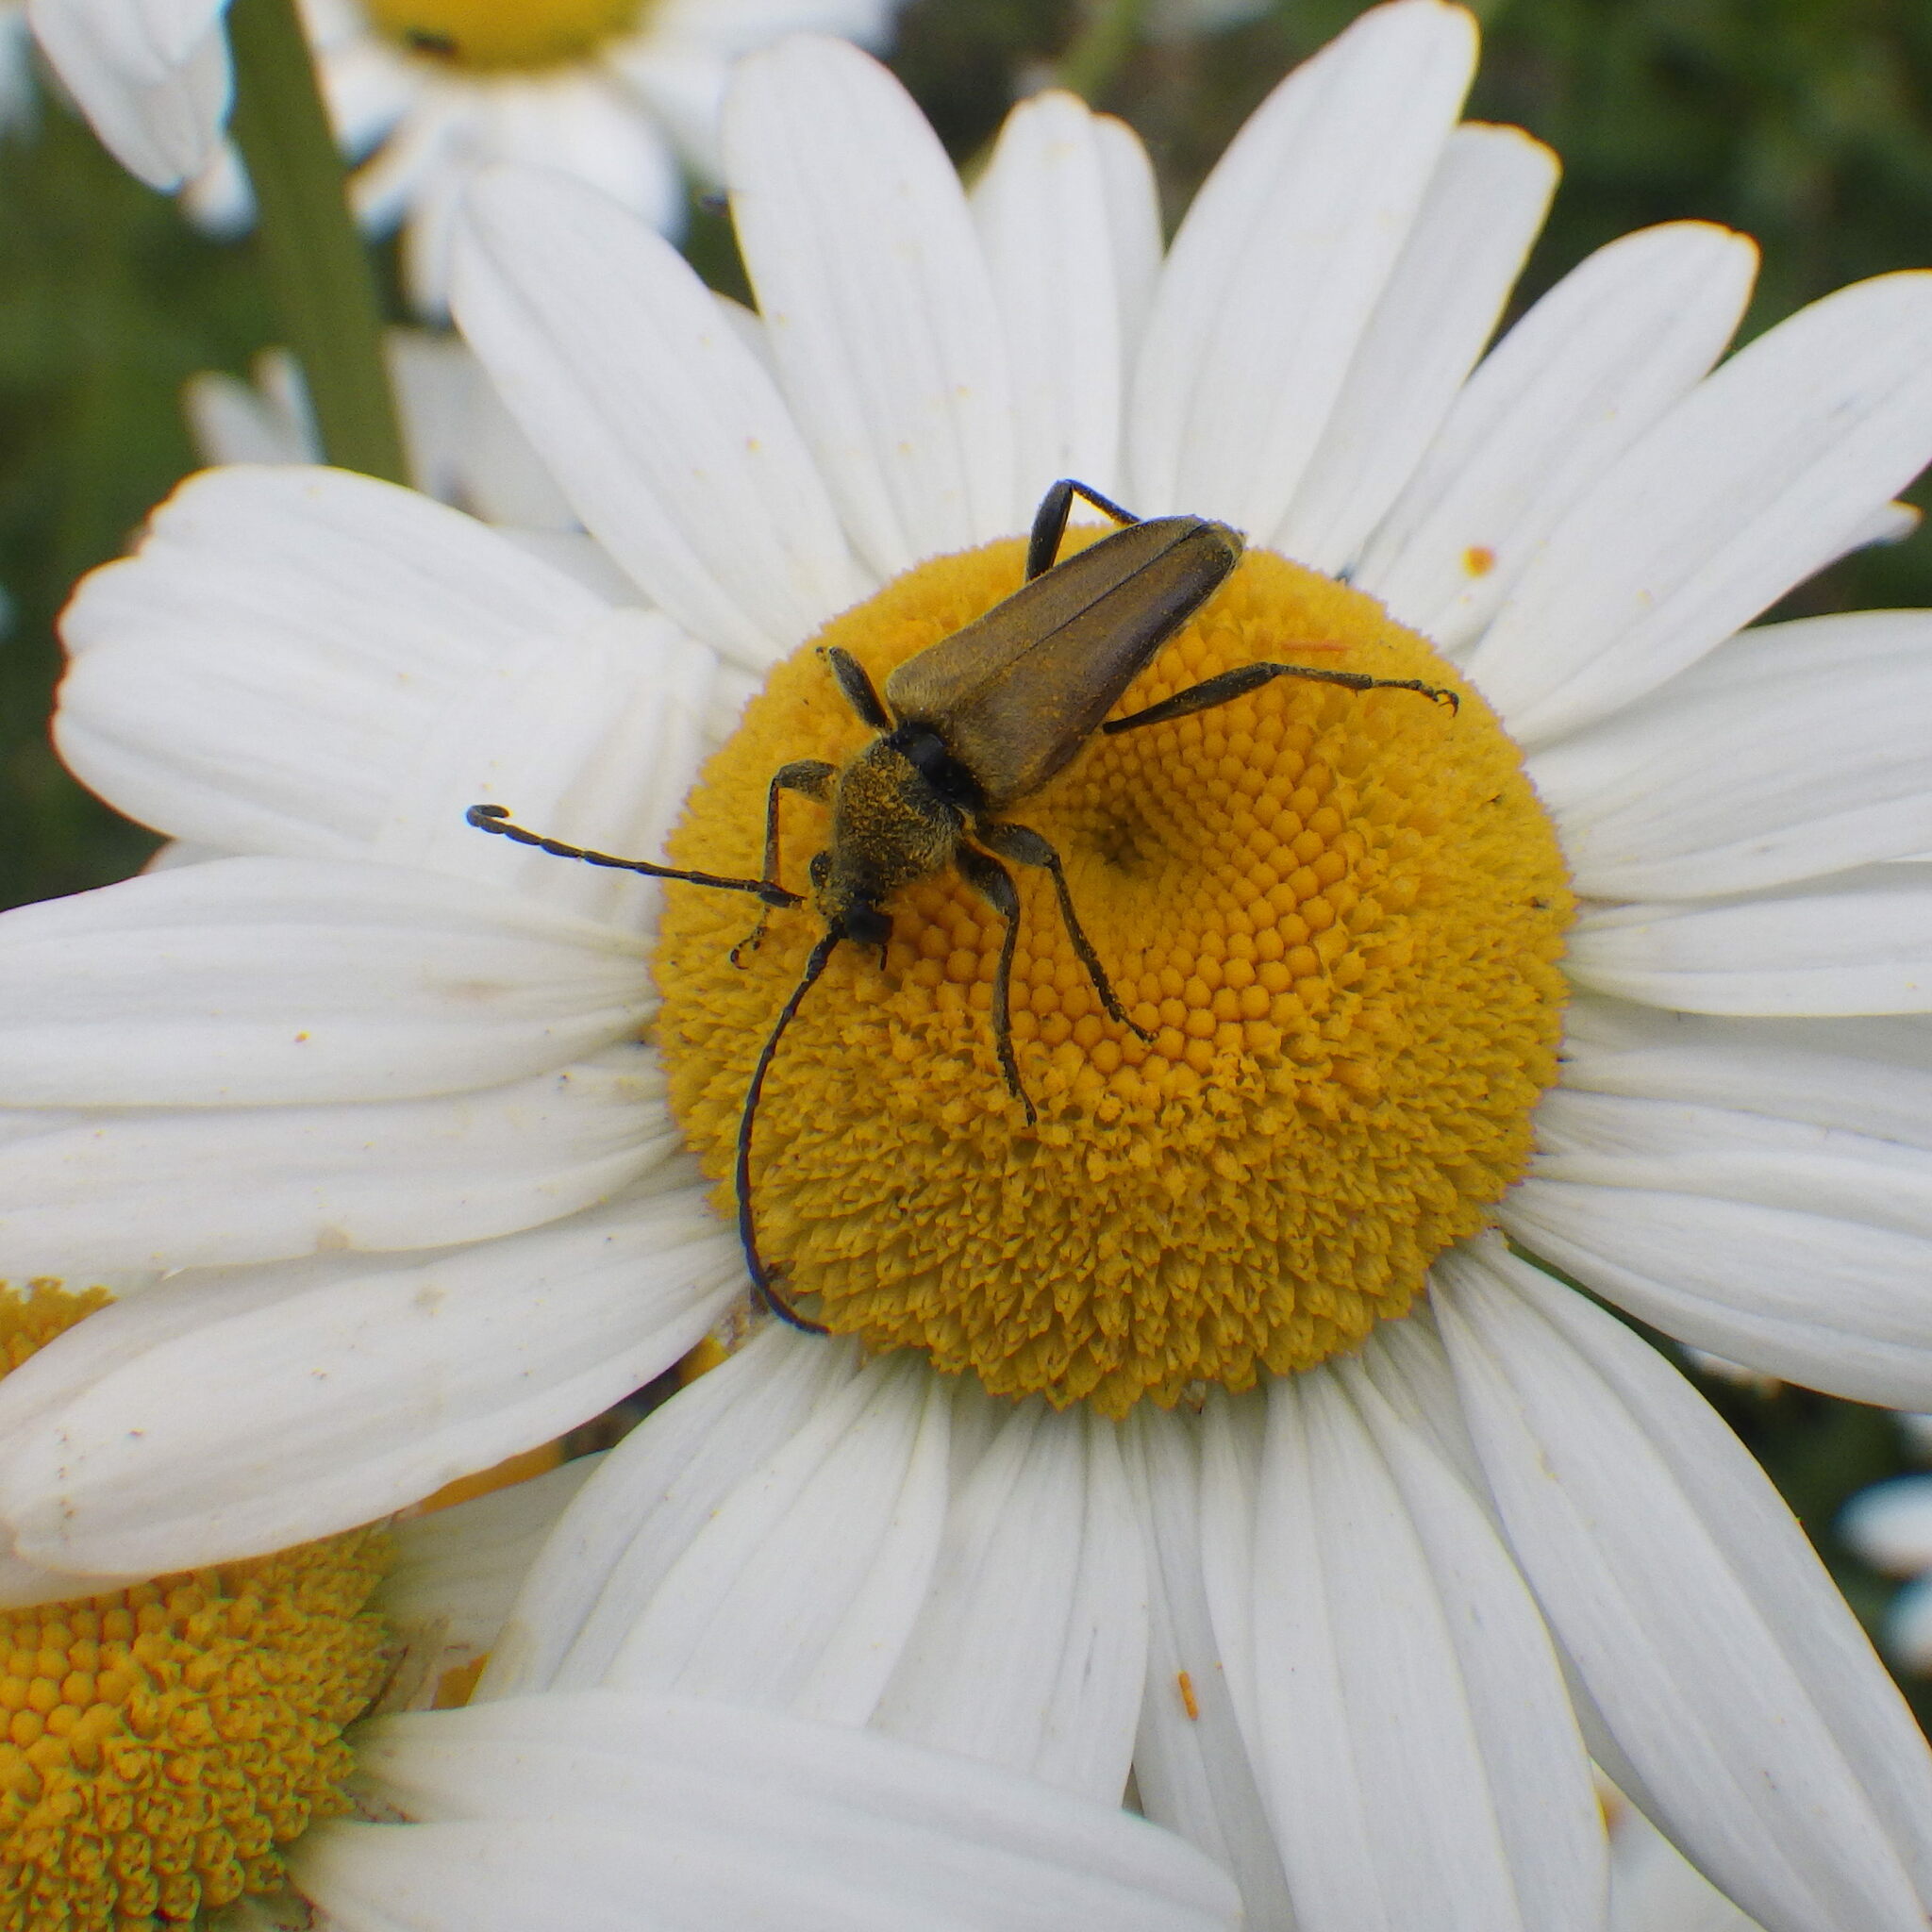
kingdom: Animalia
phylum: Arthropoda
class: Insecta
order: Coleoptera
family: Cerambycidae
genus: Cosmosalia
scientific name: Cosmosalia chrysocoma
